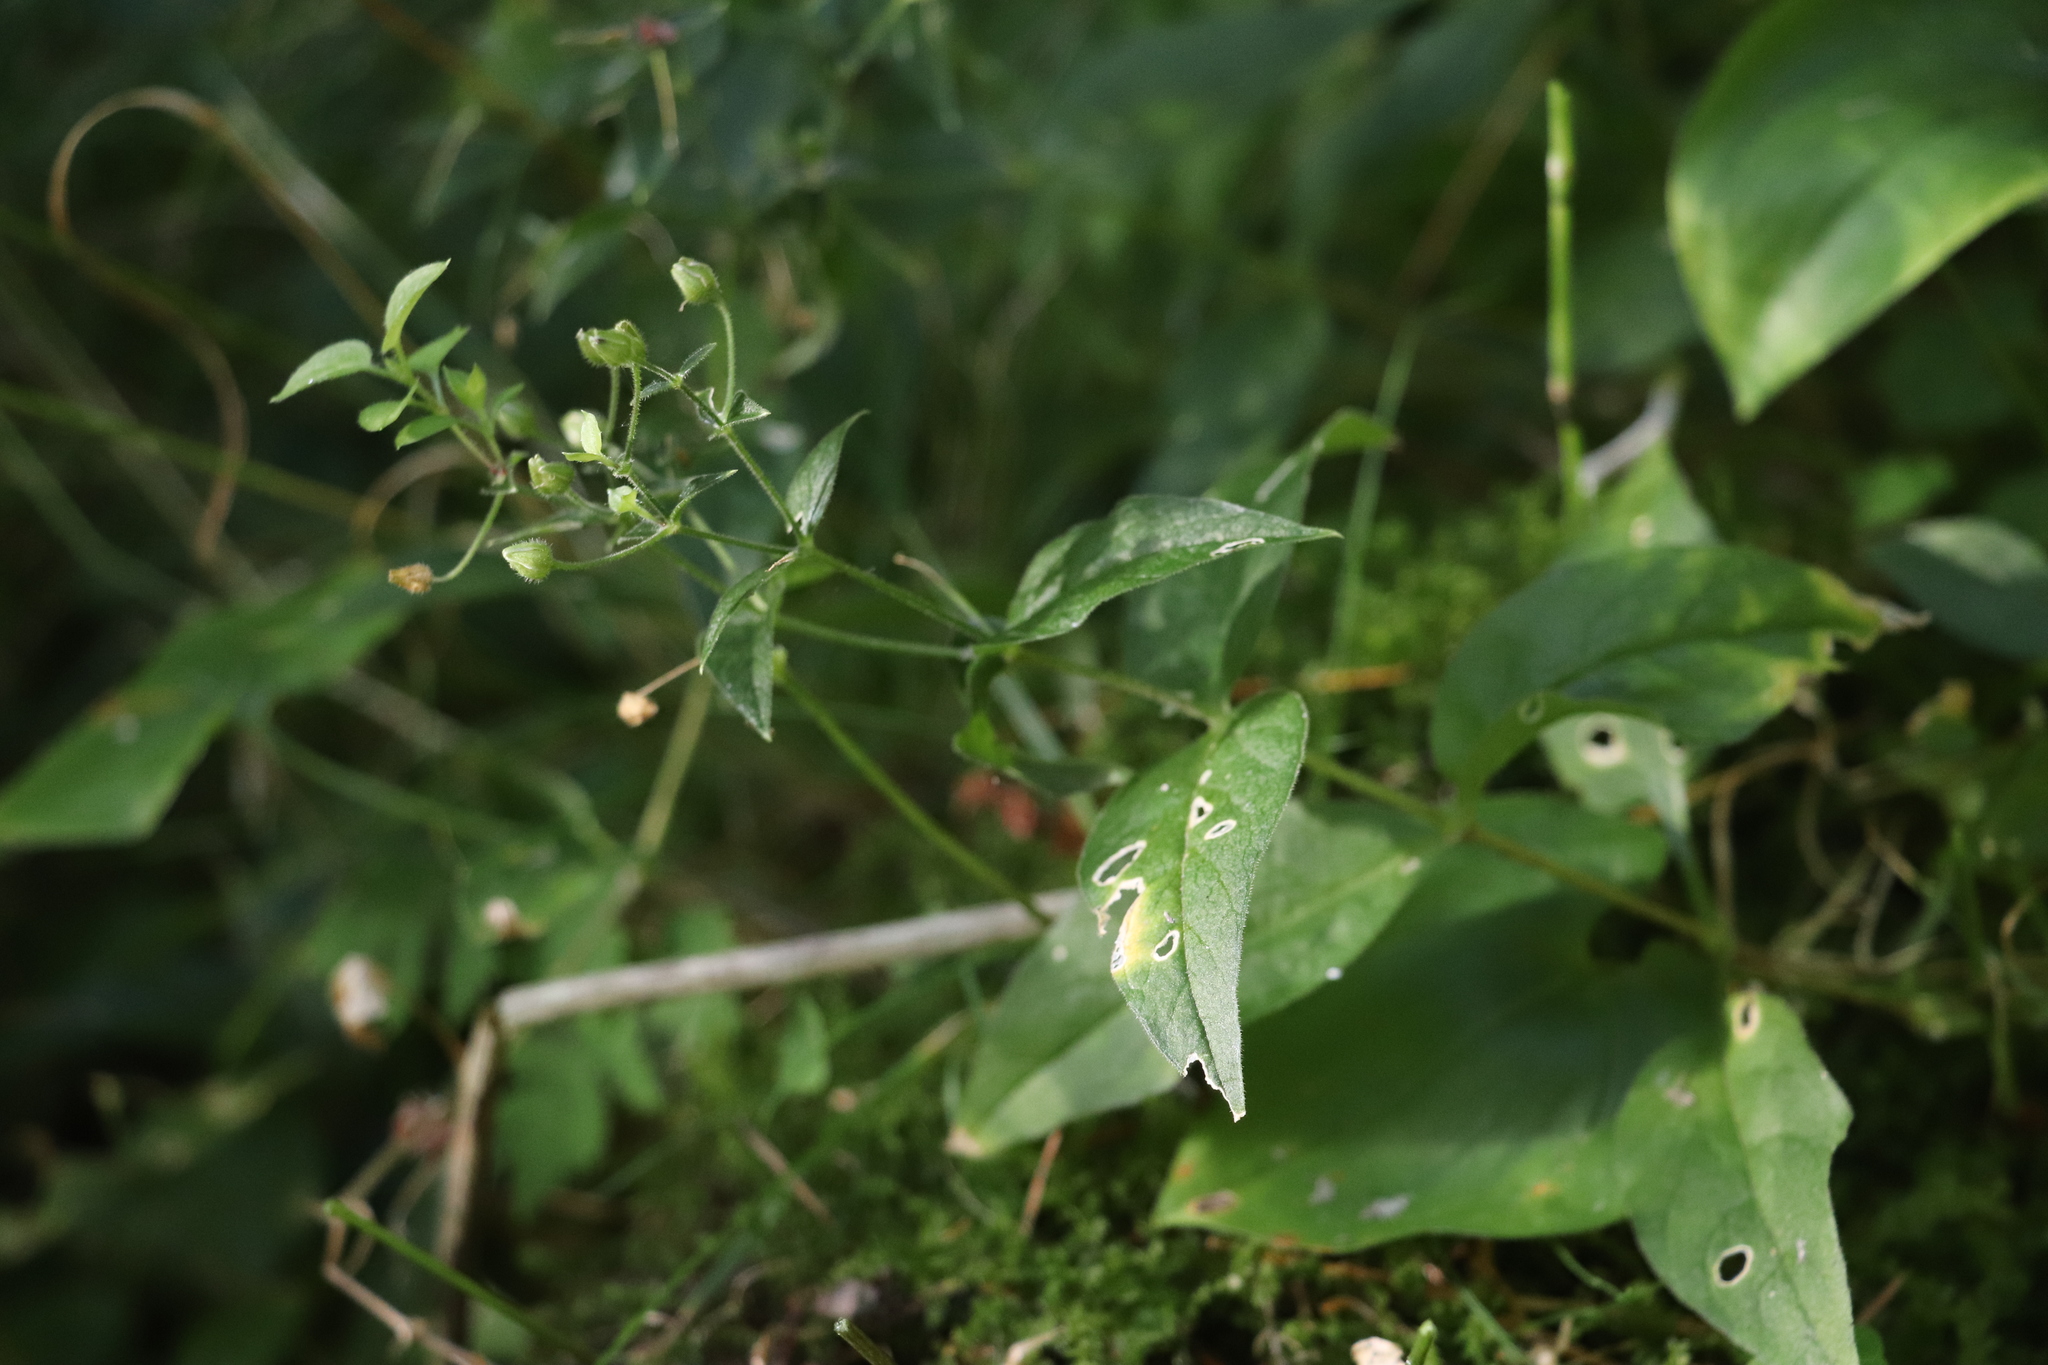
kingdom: Plantae
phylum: Tracheophyta
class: Magnoliopsida
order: Caryophyllales
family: Caryophyllaceae
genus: Stellaria
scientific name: Stellaria bungeana
